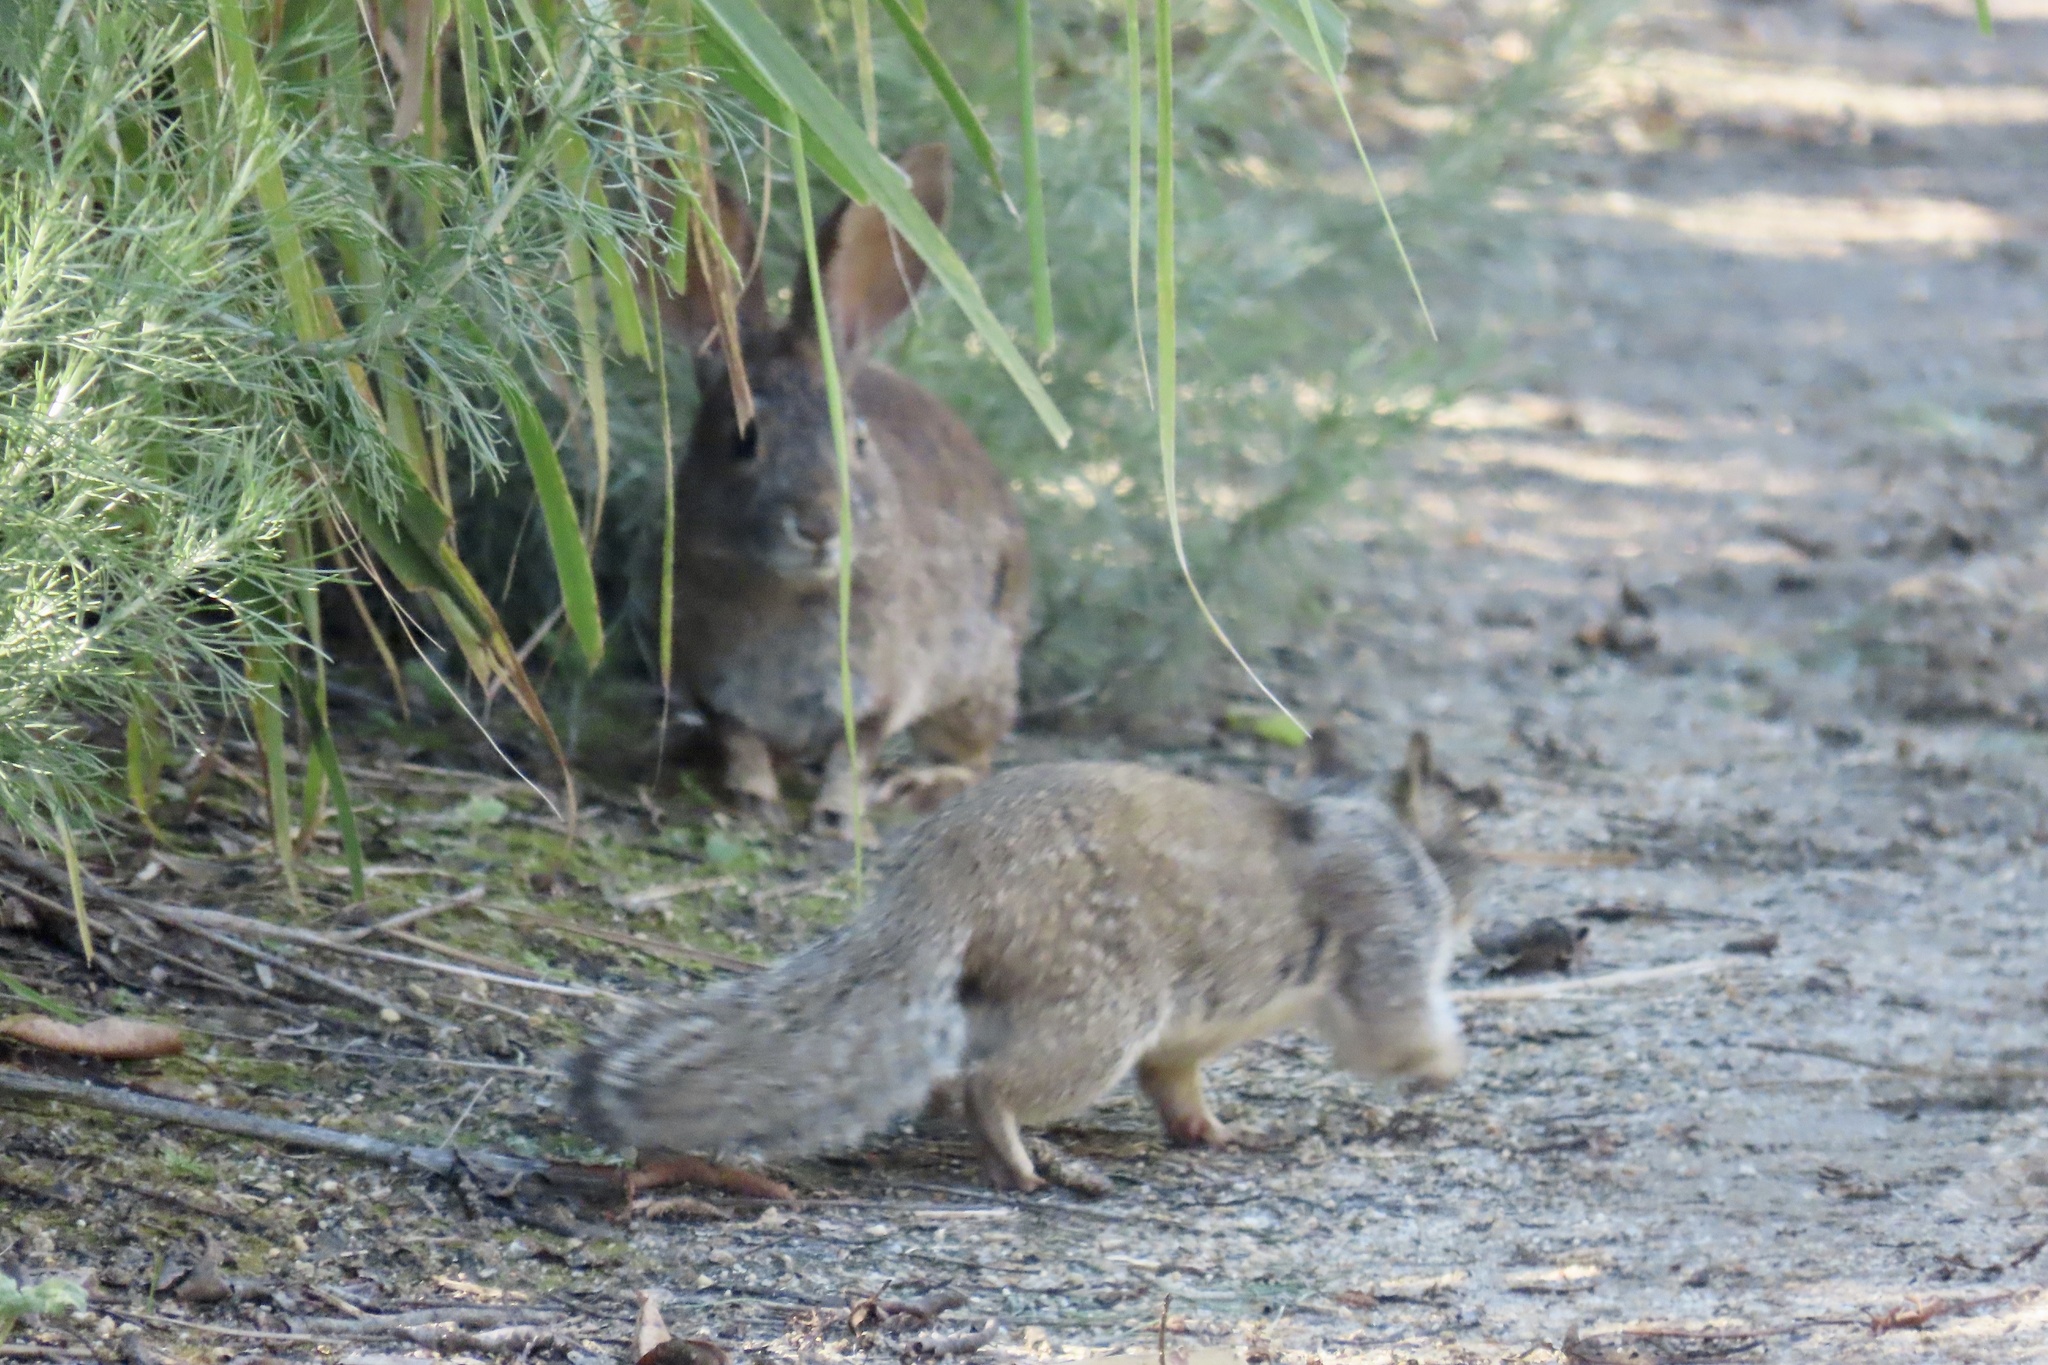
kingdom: Animalia
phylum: Chordata
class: Mammalia
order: Rodentia
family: Sciuridae
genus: Otospermophilus
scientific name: Otospermophilus beecheyi
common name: California ground squirrel
